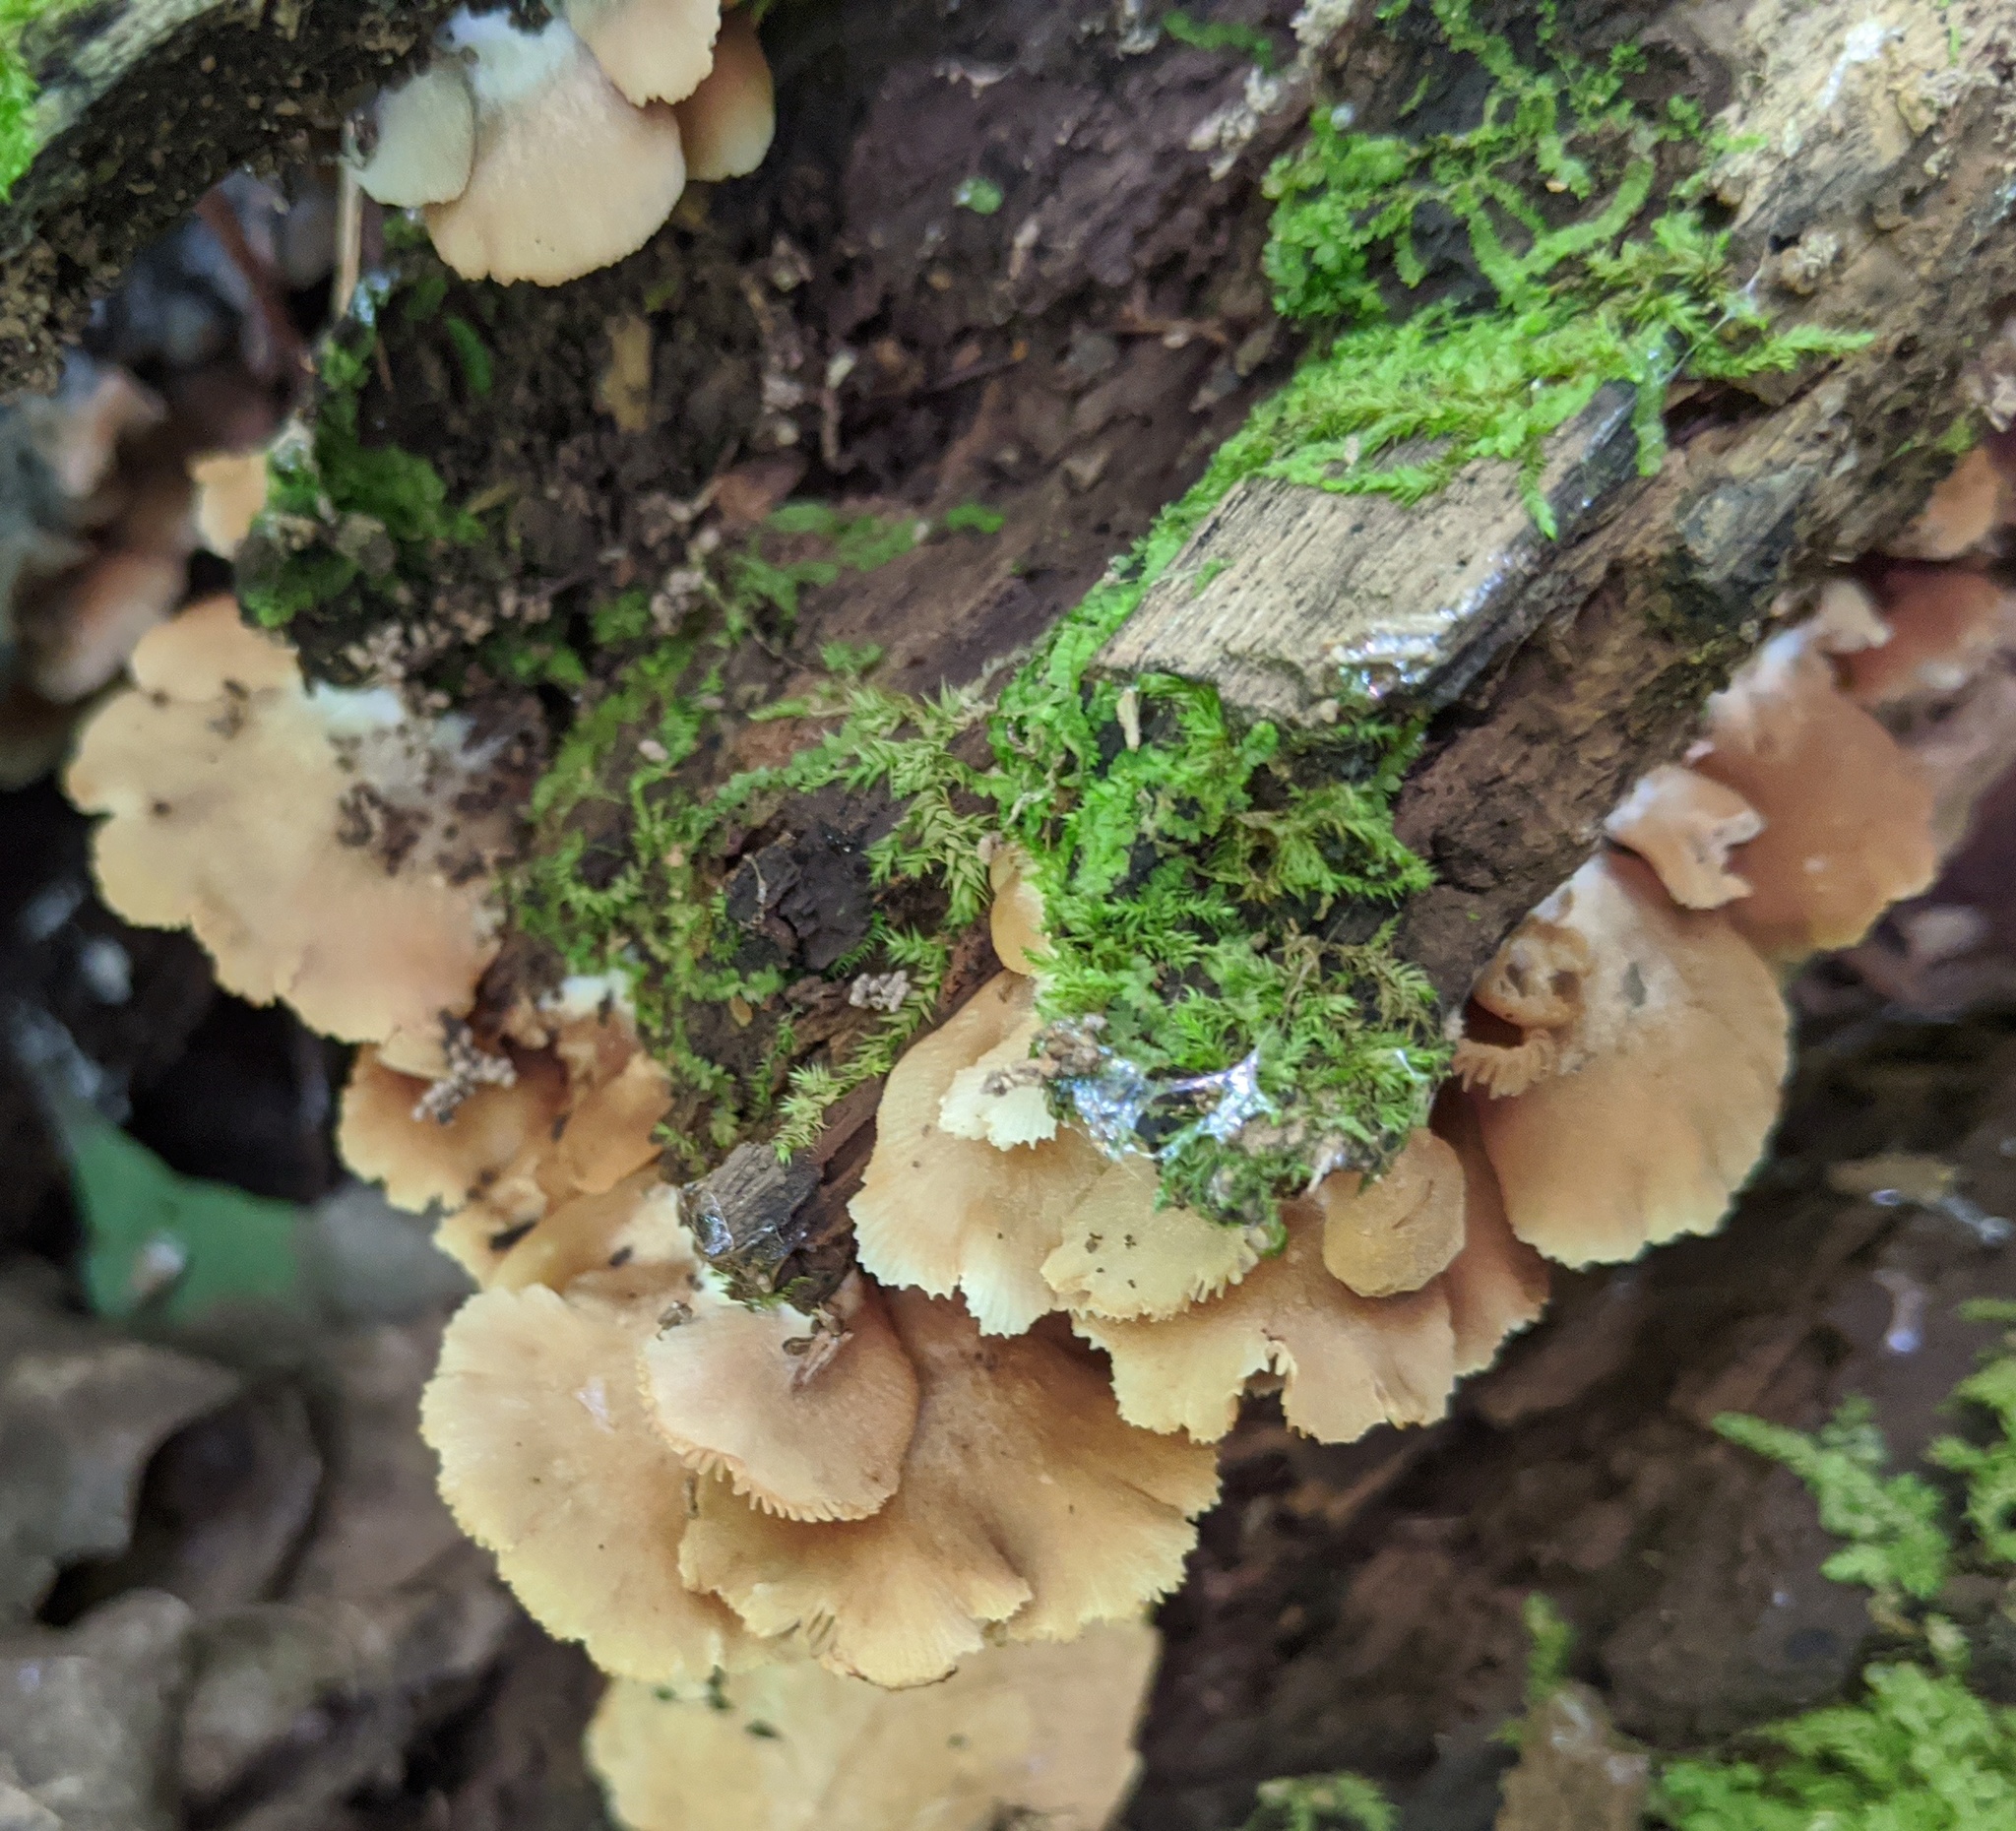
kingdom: Fungi
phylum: Basidiomycota
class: Agaricomycetes
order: Agaricales
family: Mycenaceae
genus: Panellus
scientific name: Panellus stipticus
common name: Bitter oysterling
